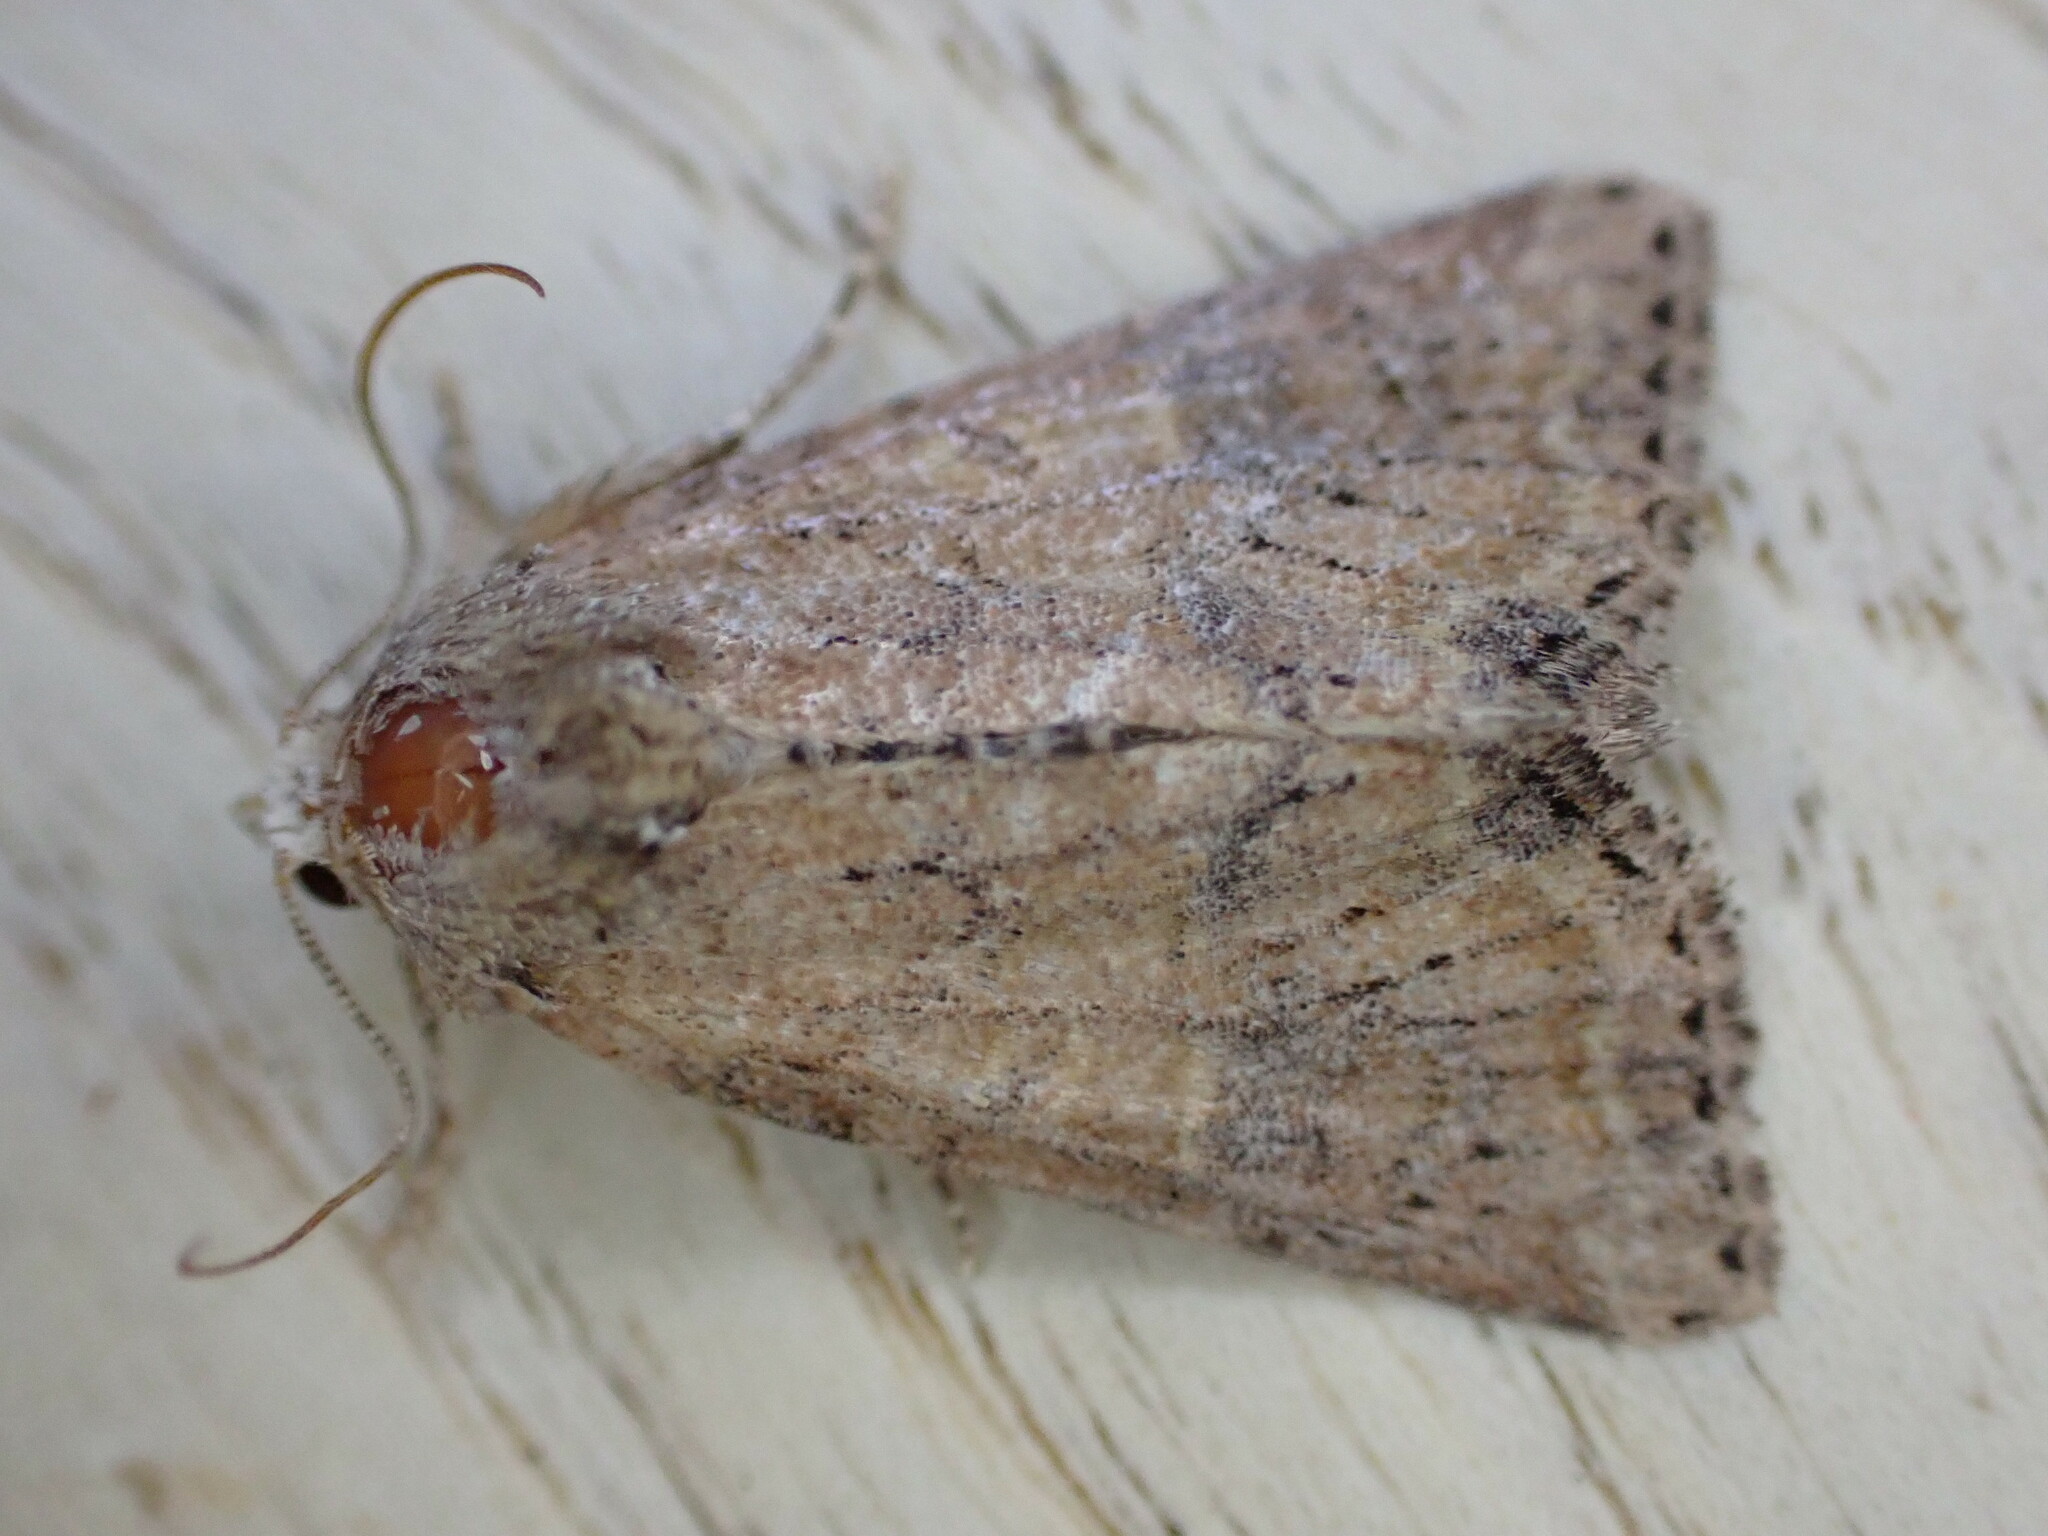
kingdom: Animalia
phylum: Arthropoda
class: Insecta
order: Lepidoptera
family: Noctuidae
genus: Mesoligia
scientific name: Mesoligia furuncula
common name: Cloaked minor
